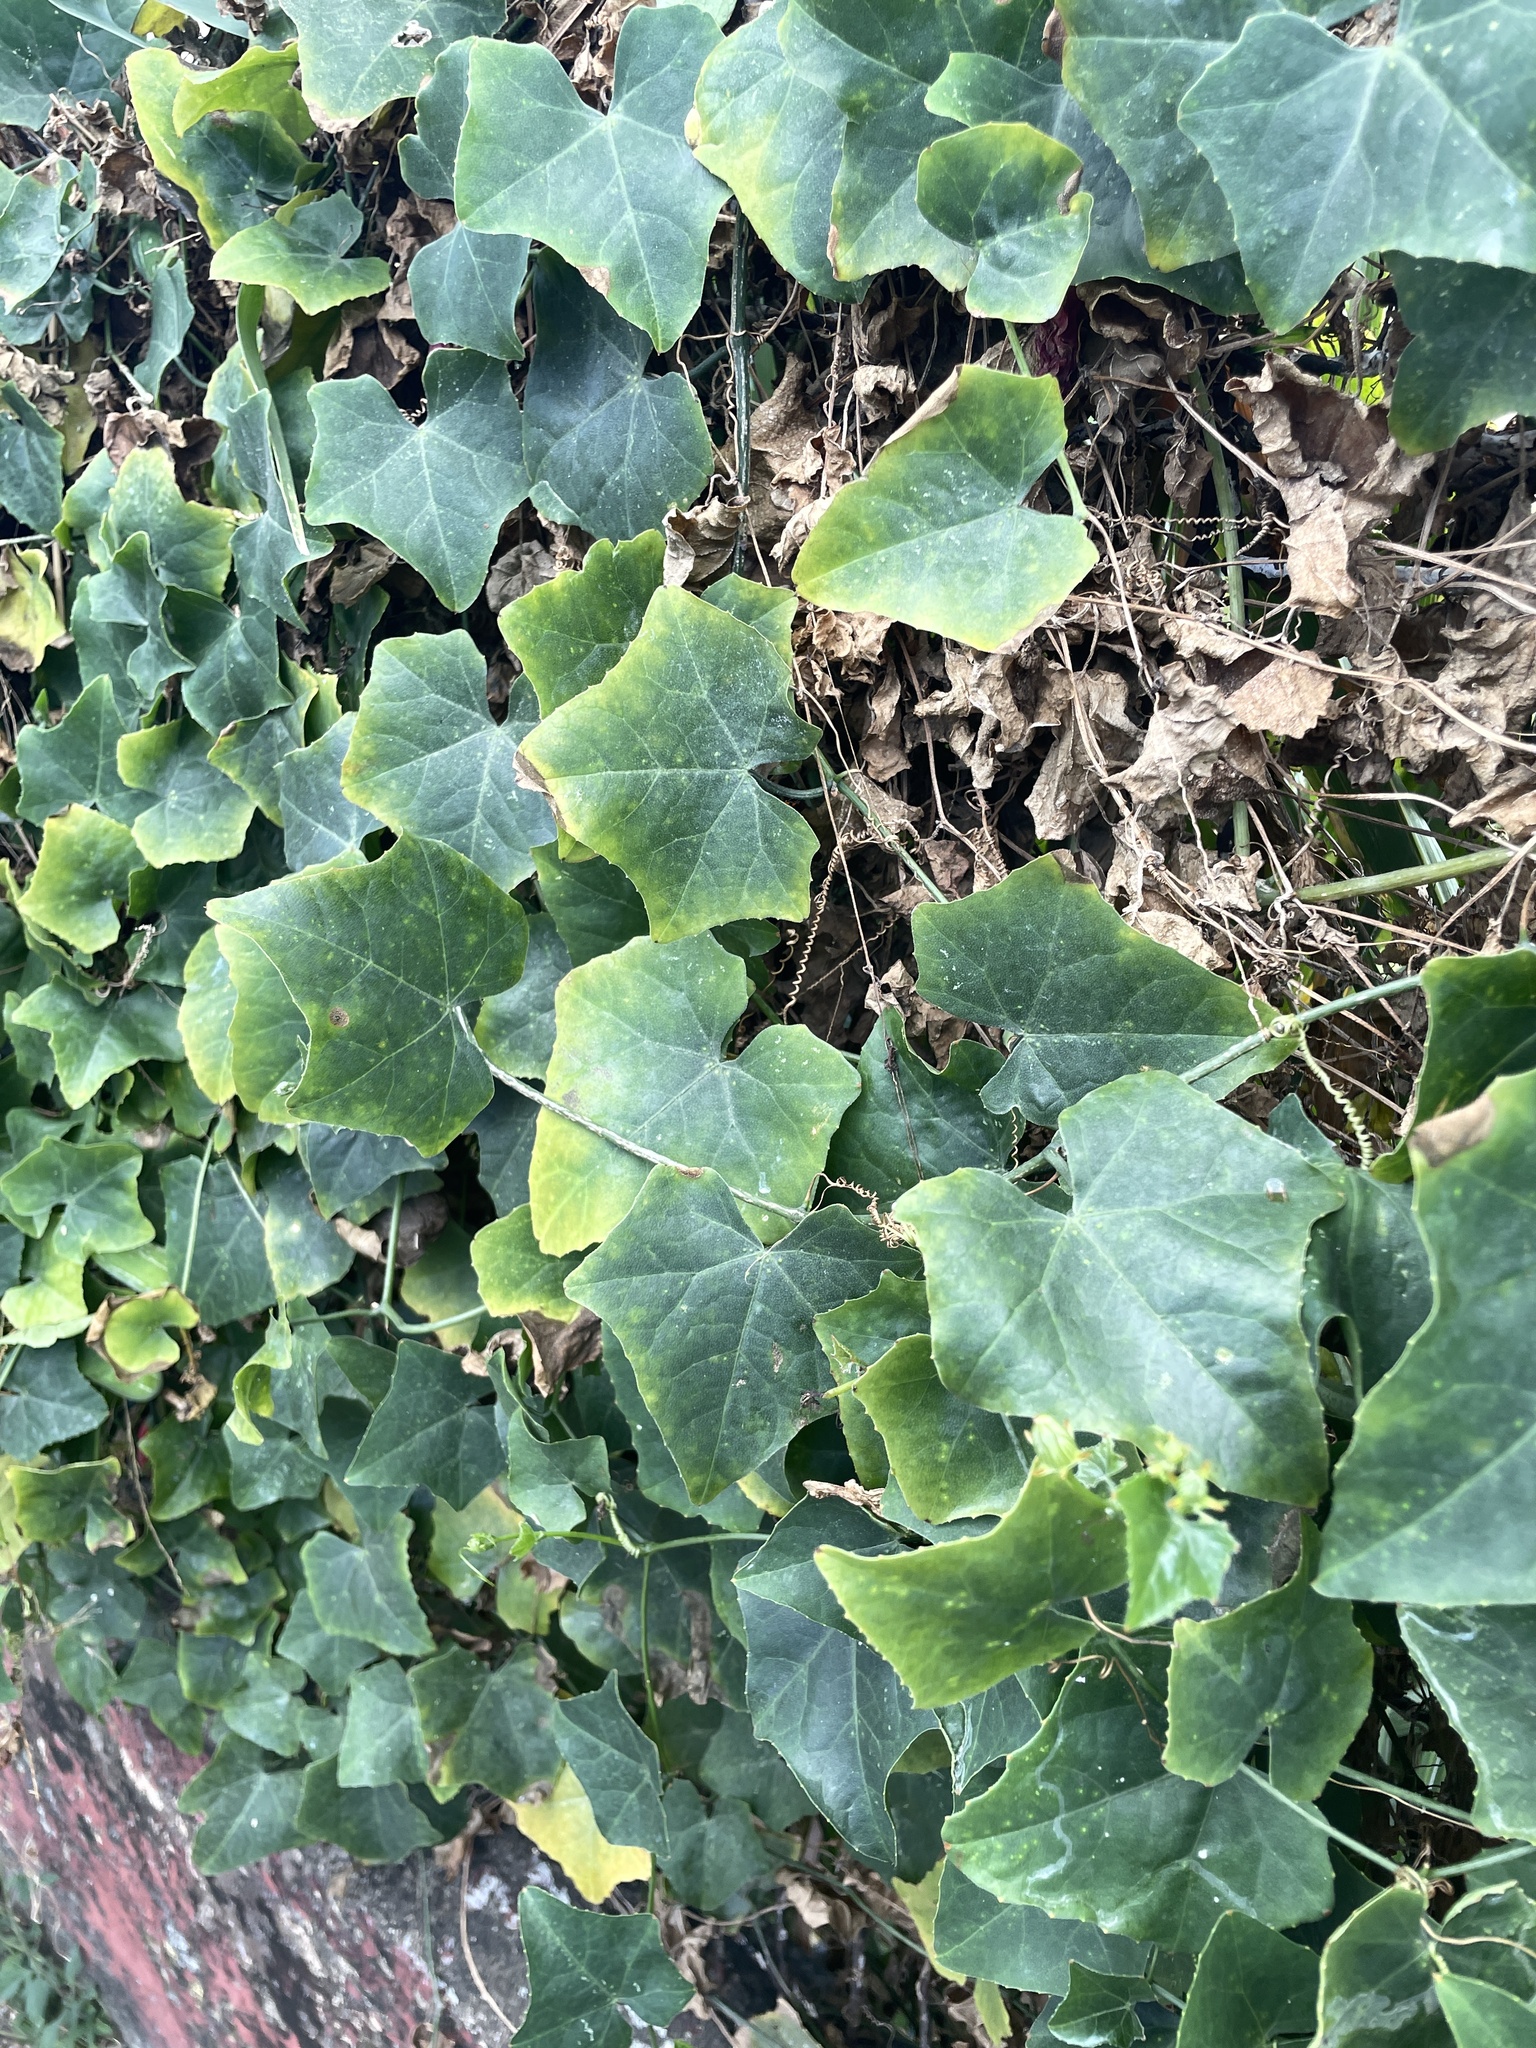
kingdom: Plantae
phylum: Tracheophyta
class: Magnoliopsida
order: Cucurbitales
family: Cucurbitaceae
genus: Coccinia
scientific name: Coccinia grandis
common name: Ivy gourd
